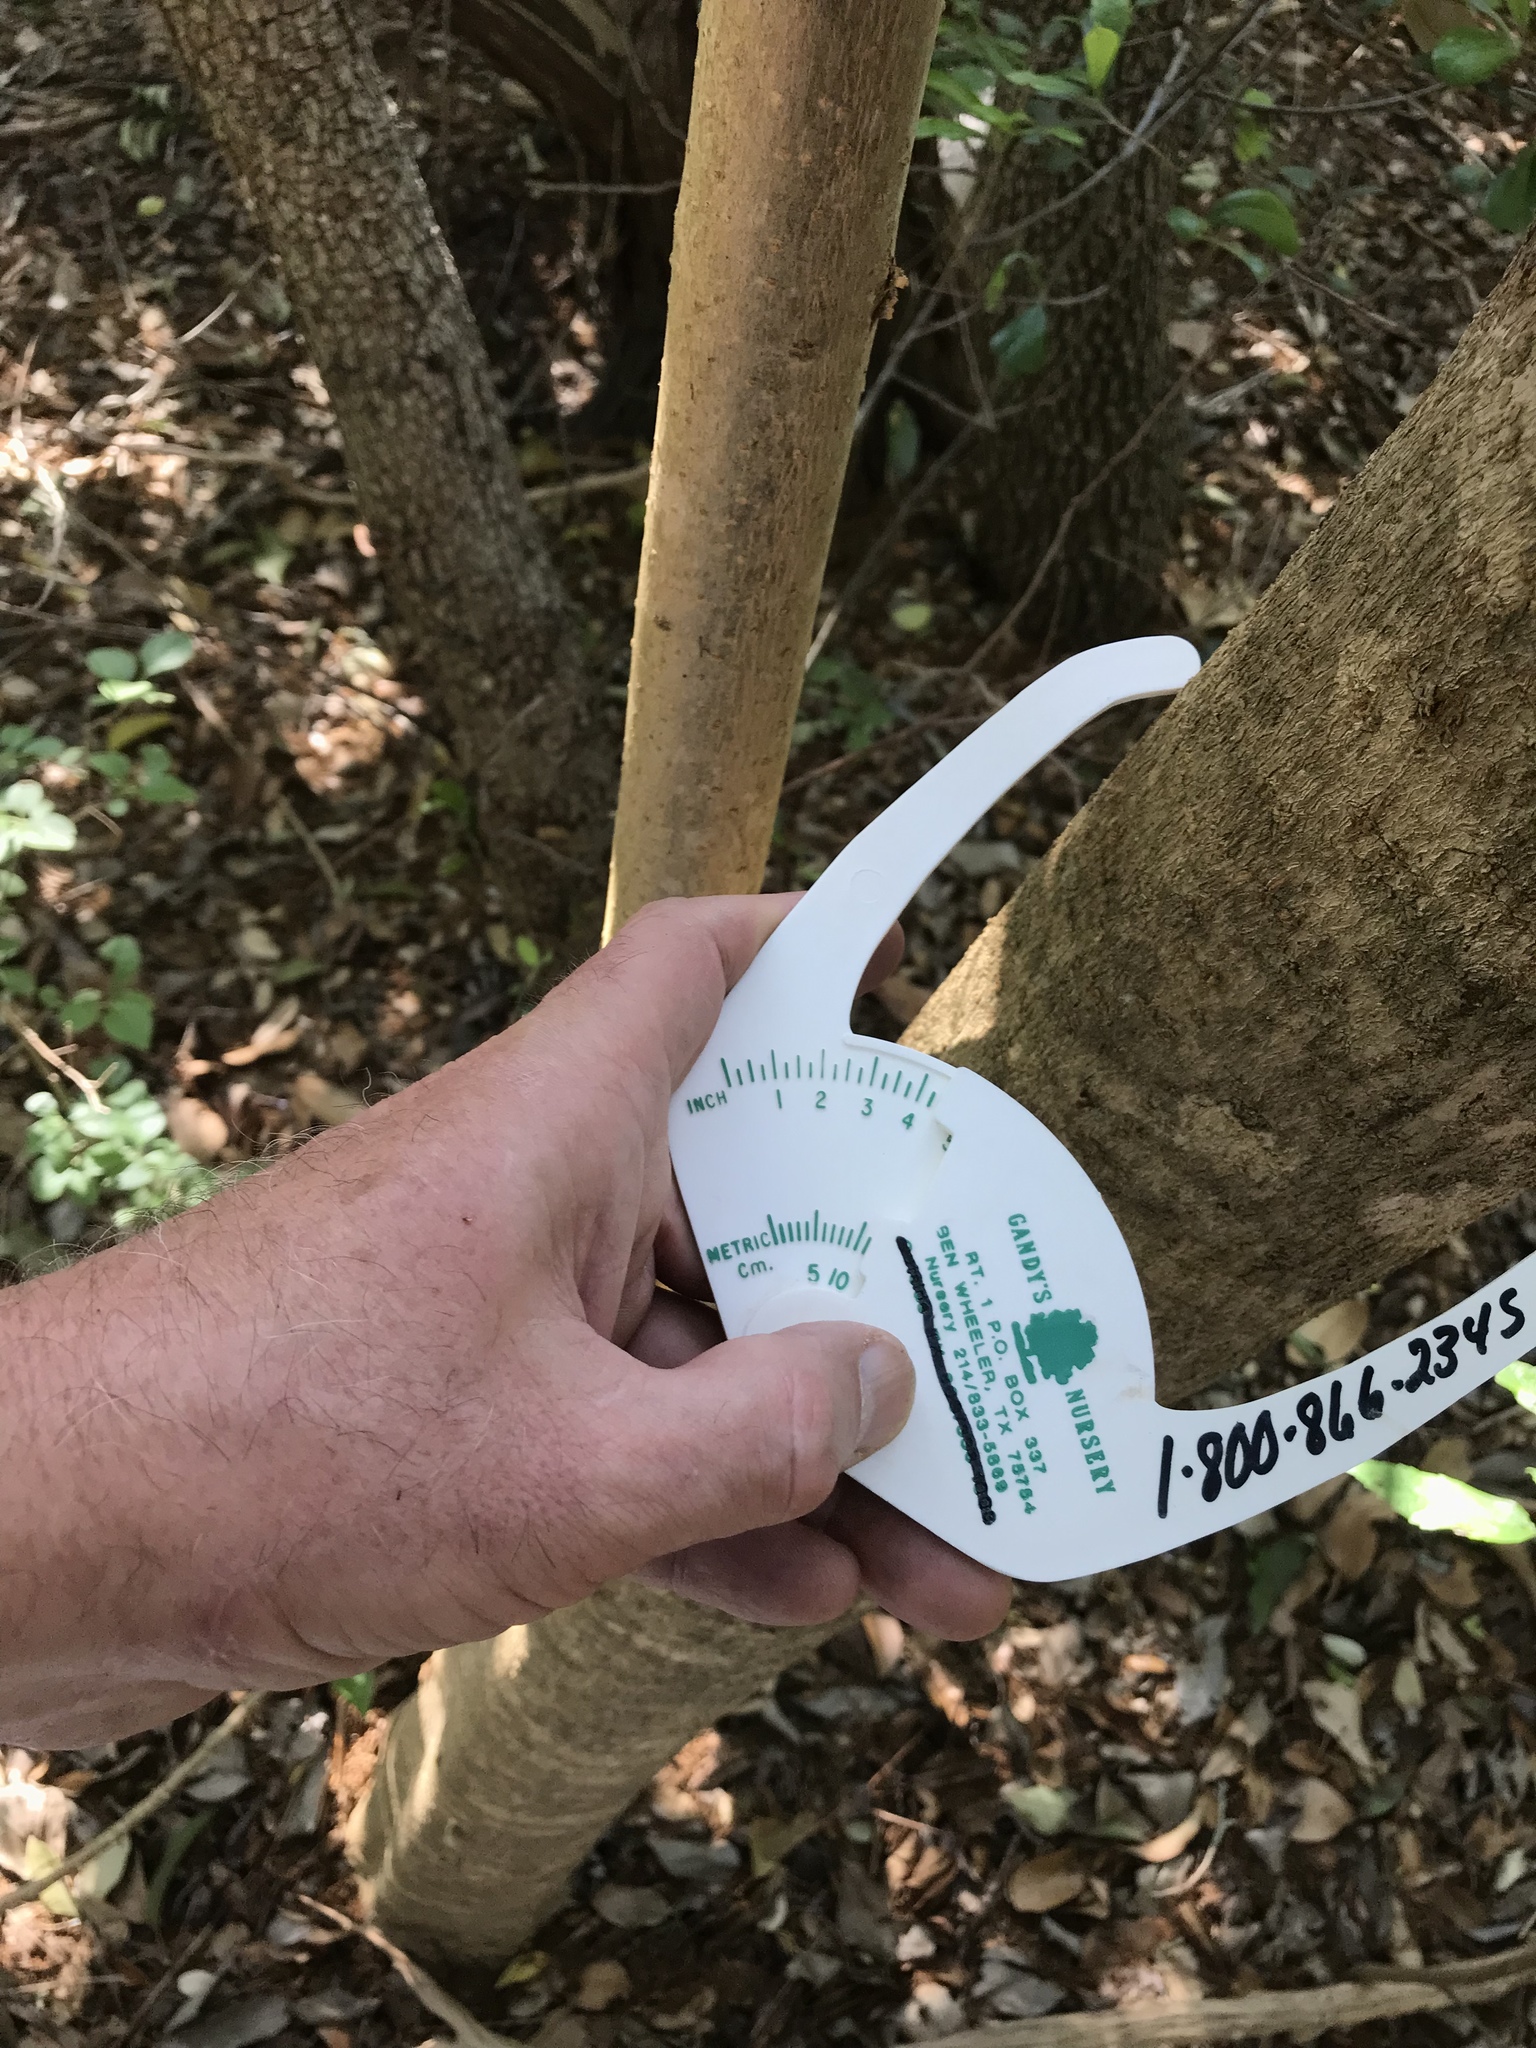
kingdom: Plantae
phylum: Tracheophyta
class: Magnoliopsida
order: Lamiales
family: Oleaceae
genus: Ligustrum
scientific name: Ligustrum lucidum
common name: Glossy privet
